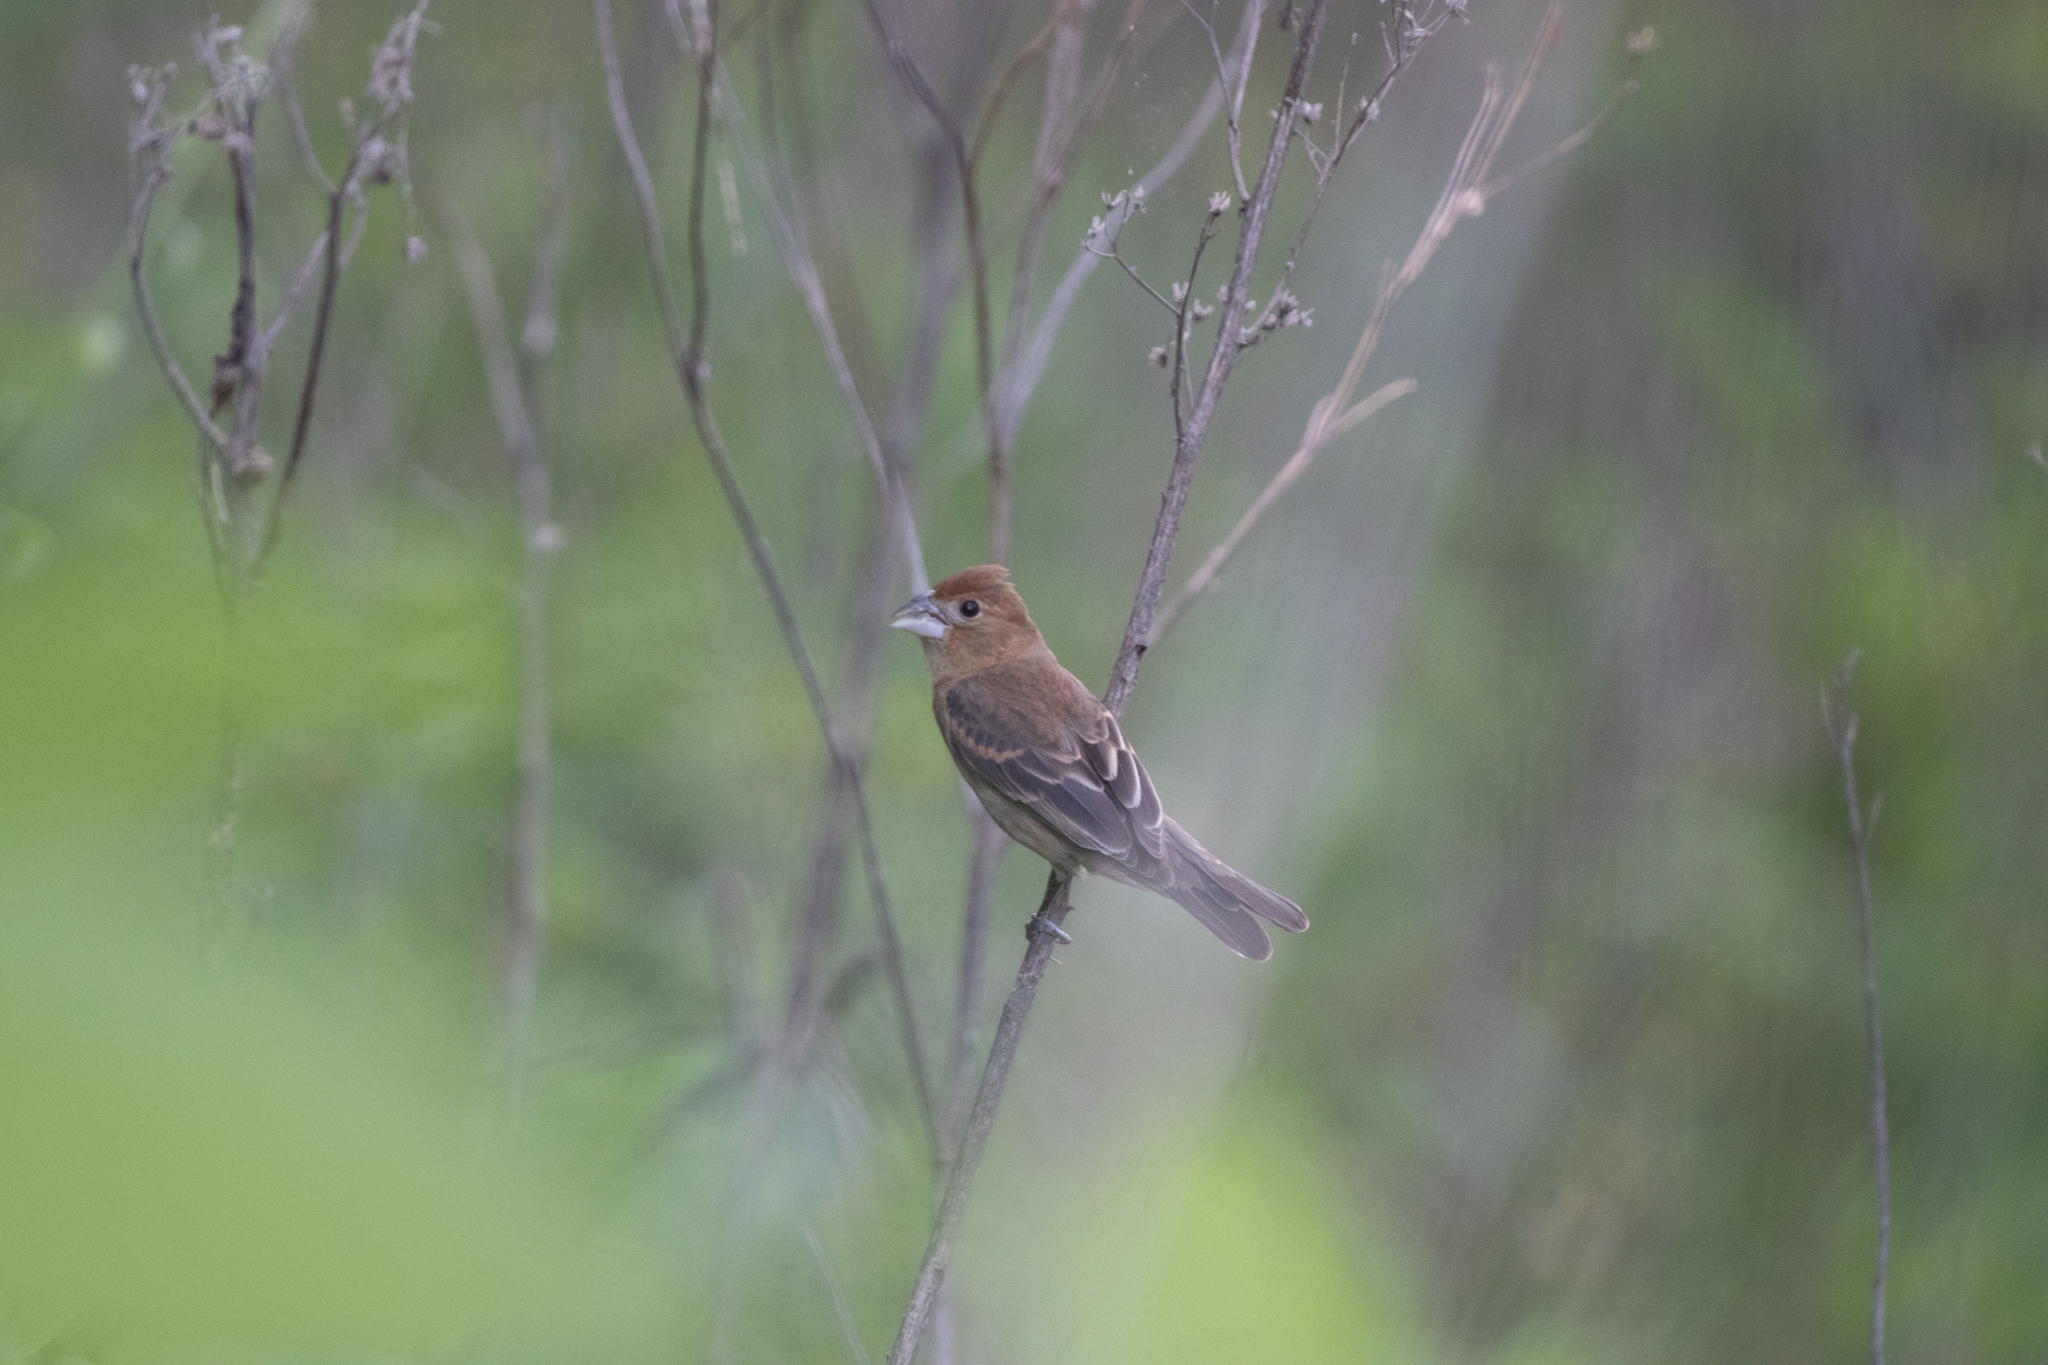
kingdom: Animalia
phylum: Chordata
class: Aves
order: Passeriformes
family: Cardinalidae
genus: Passerina
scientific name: Passerina caerulea
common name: Blue grosbeak
